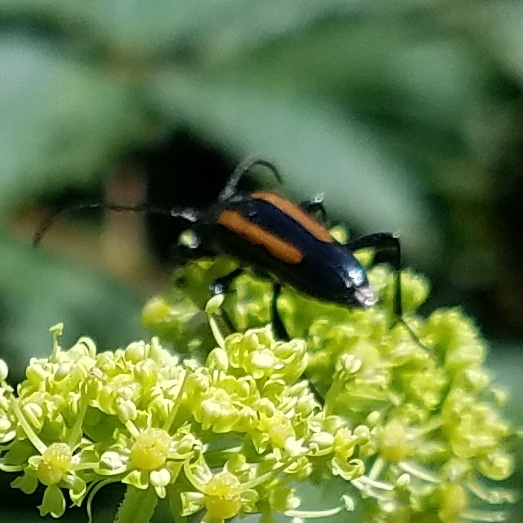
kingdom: Animalia
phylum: Arthropoda
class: Insecta
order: Coleoptera
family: Cerambycidae
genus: Strangalepta
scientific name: Strangalepta abbreviata
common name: Strangalepta flower longhorn beetle
